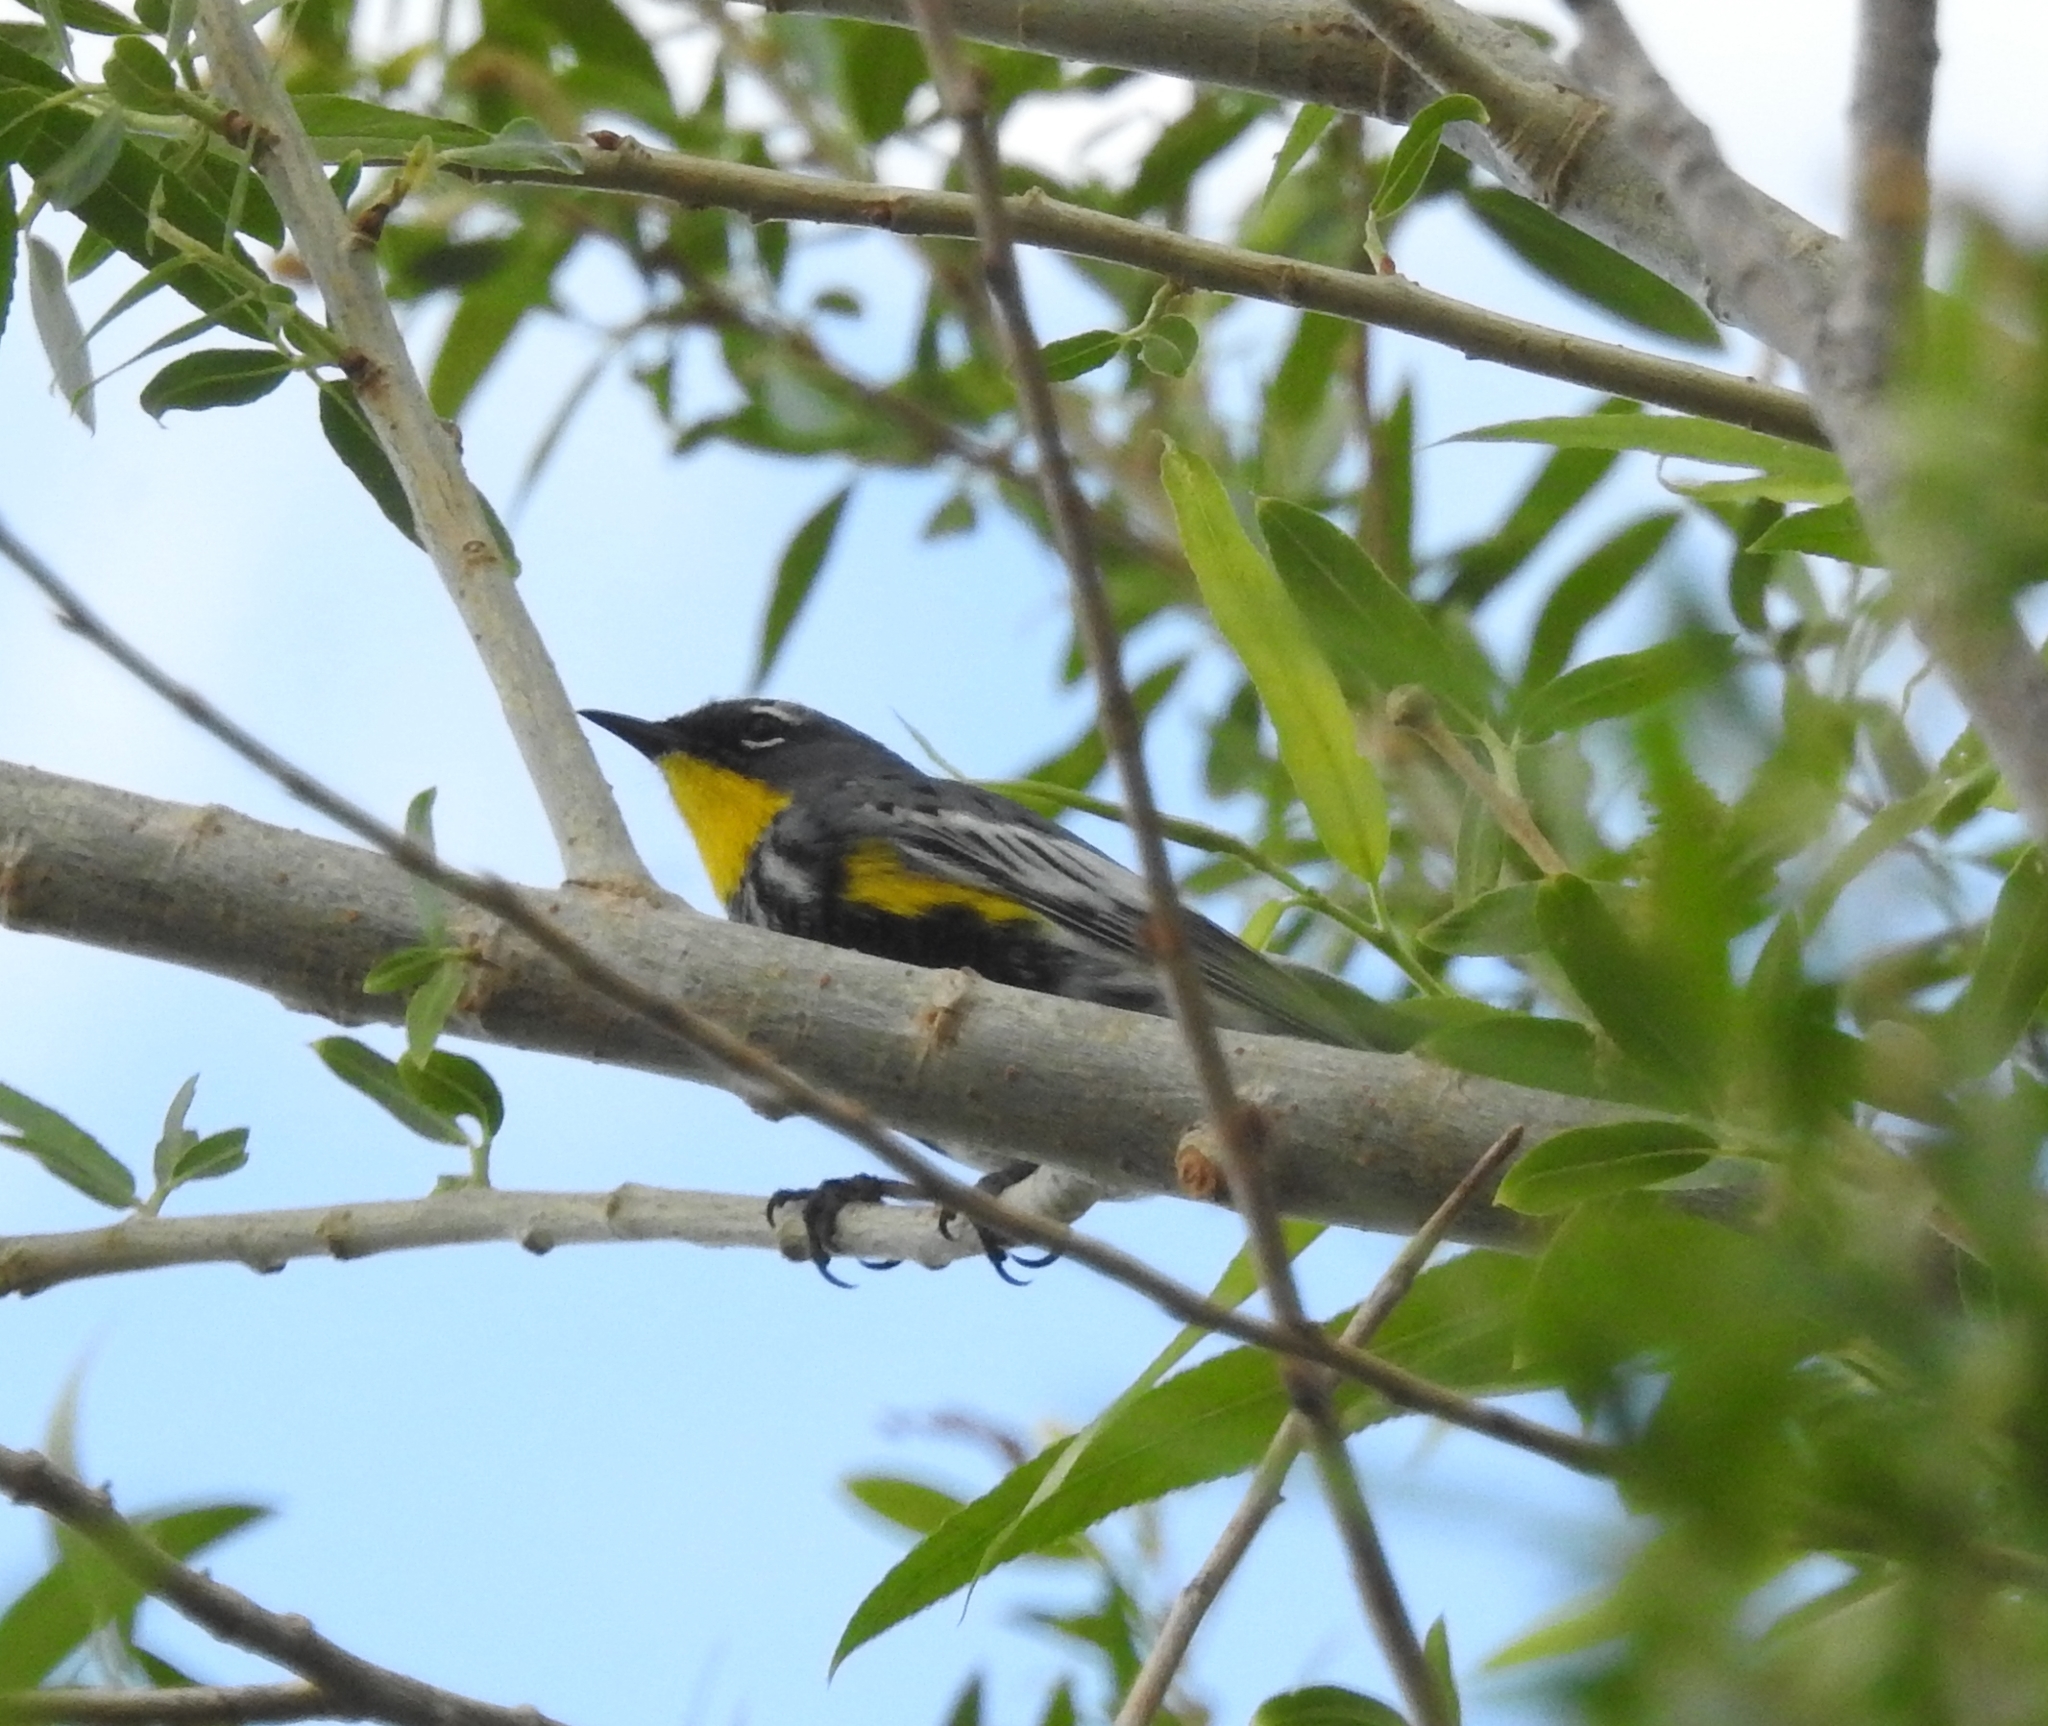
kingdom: Animalia
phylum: Chordata
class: Aves
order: Passeriformes
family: Parulidae
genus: Setophaga
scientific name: Setophaga auduboni
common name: Audubon's warbler
